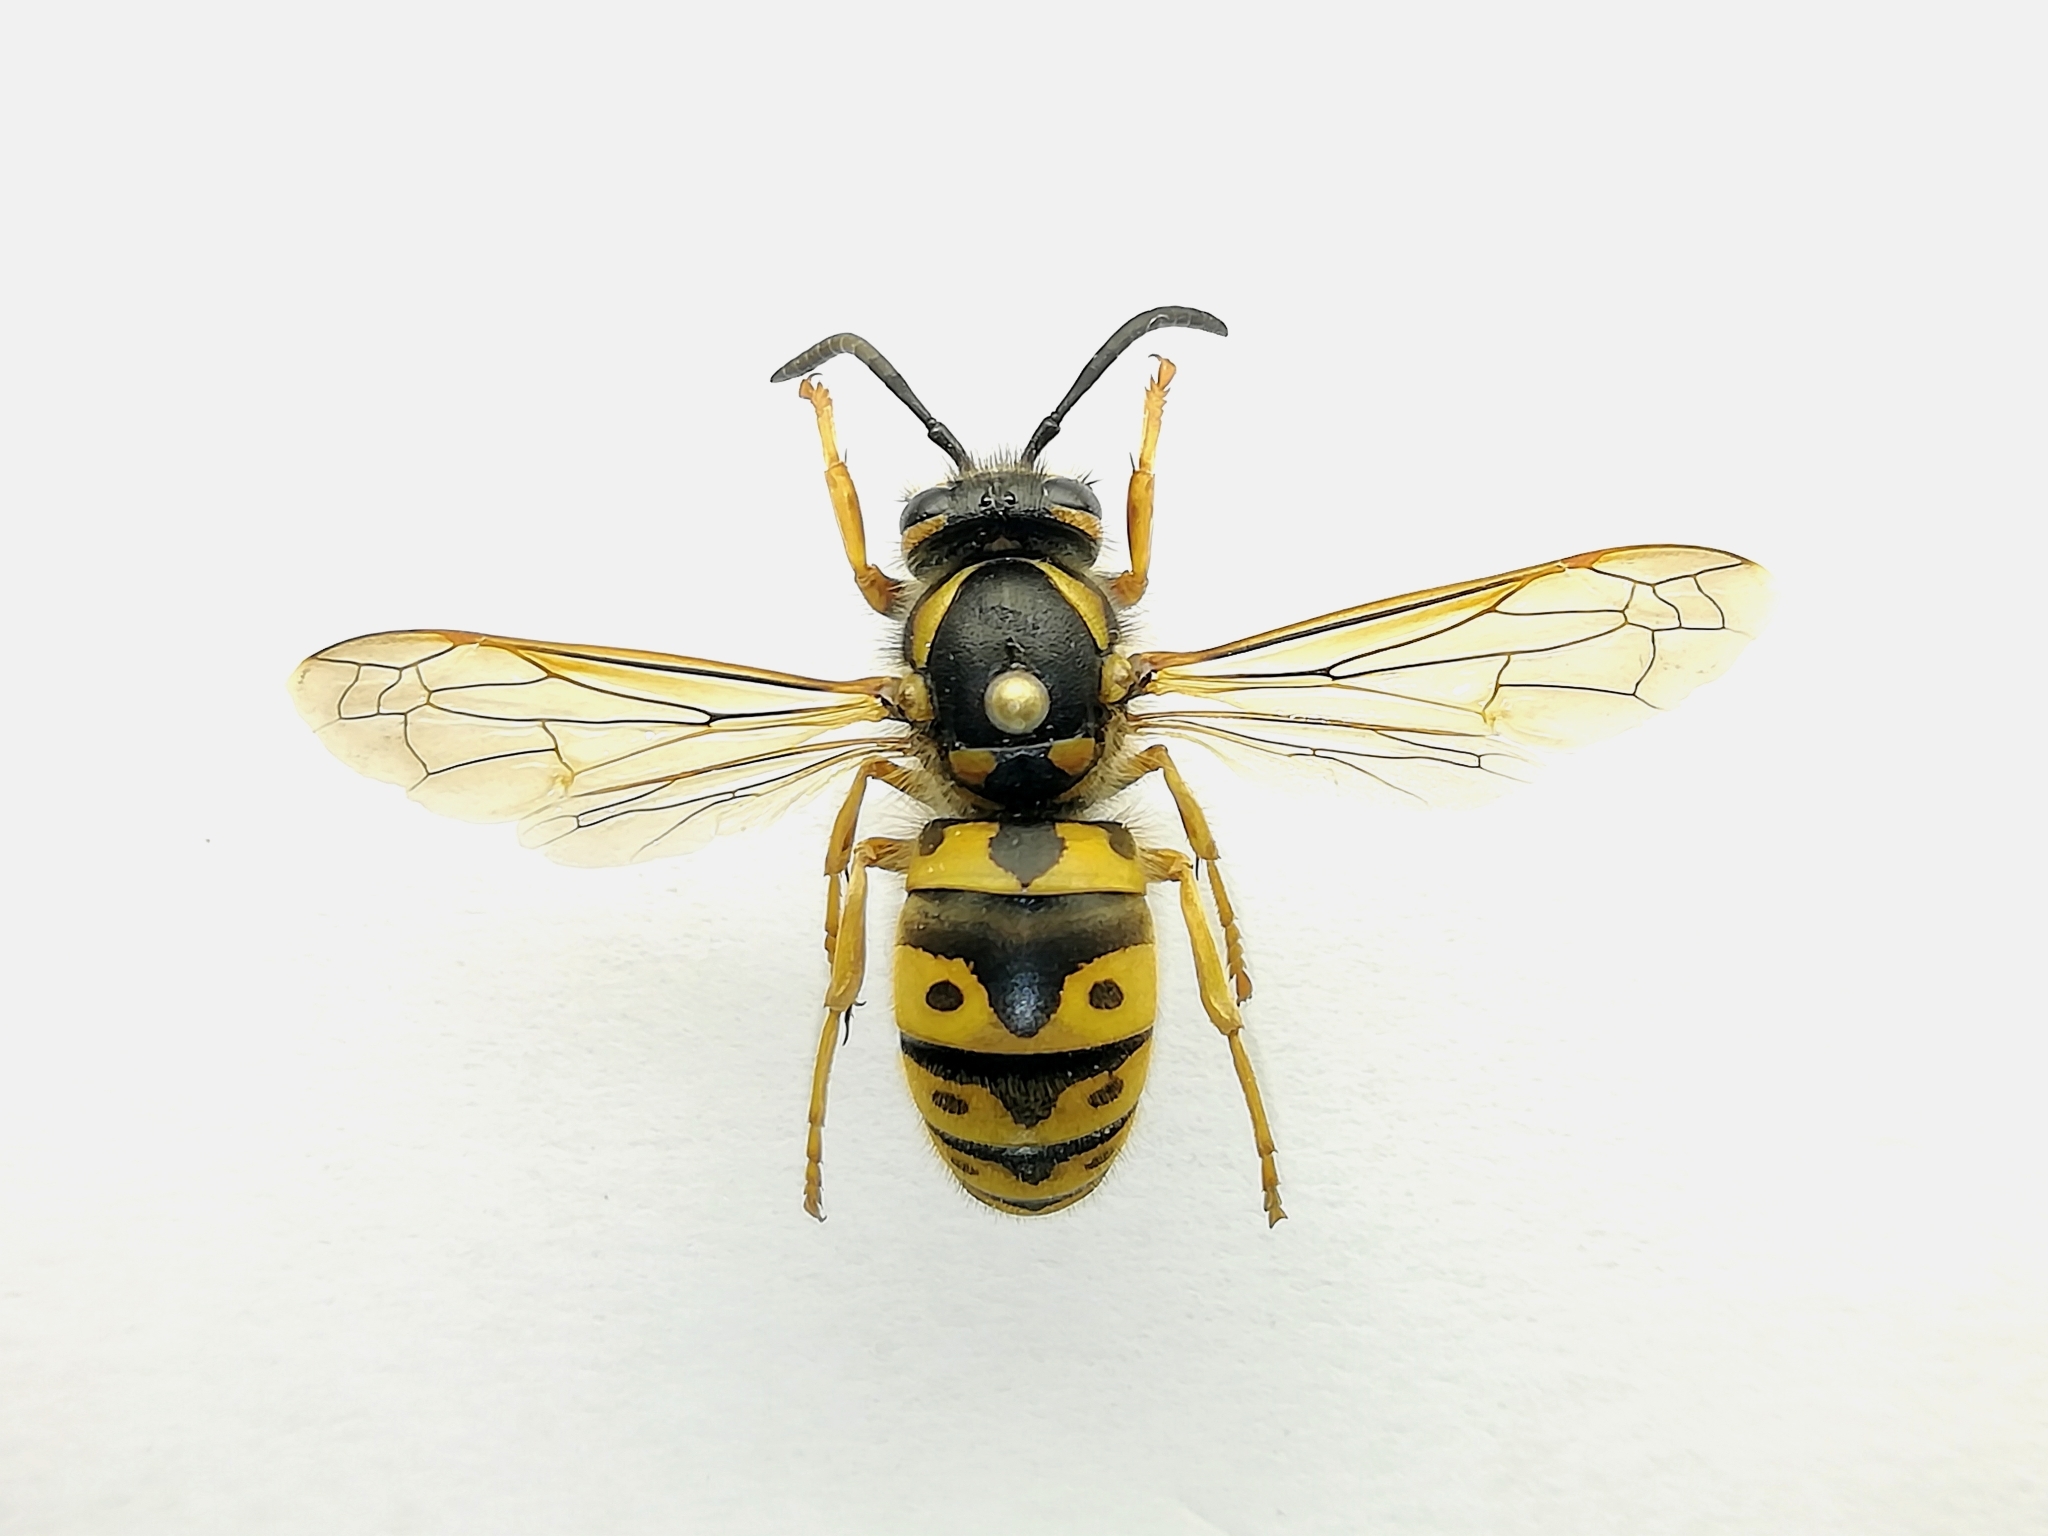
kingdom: Animalia
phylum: Arthropoda
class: Insecta
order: Hymenoptera
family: Vespidae
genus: Vespula
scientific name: Vespula germanica
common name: German wasp
